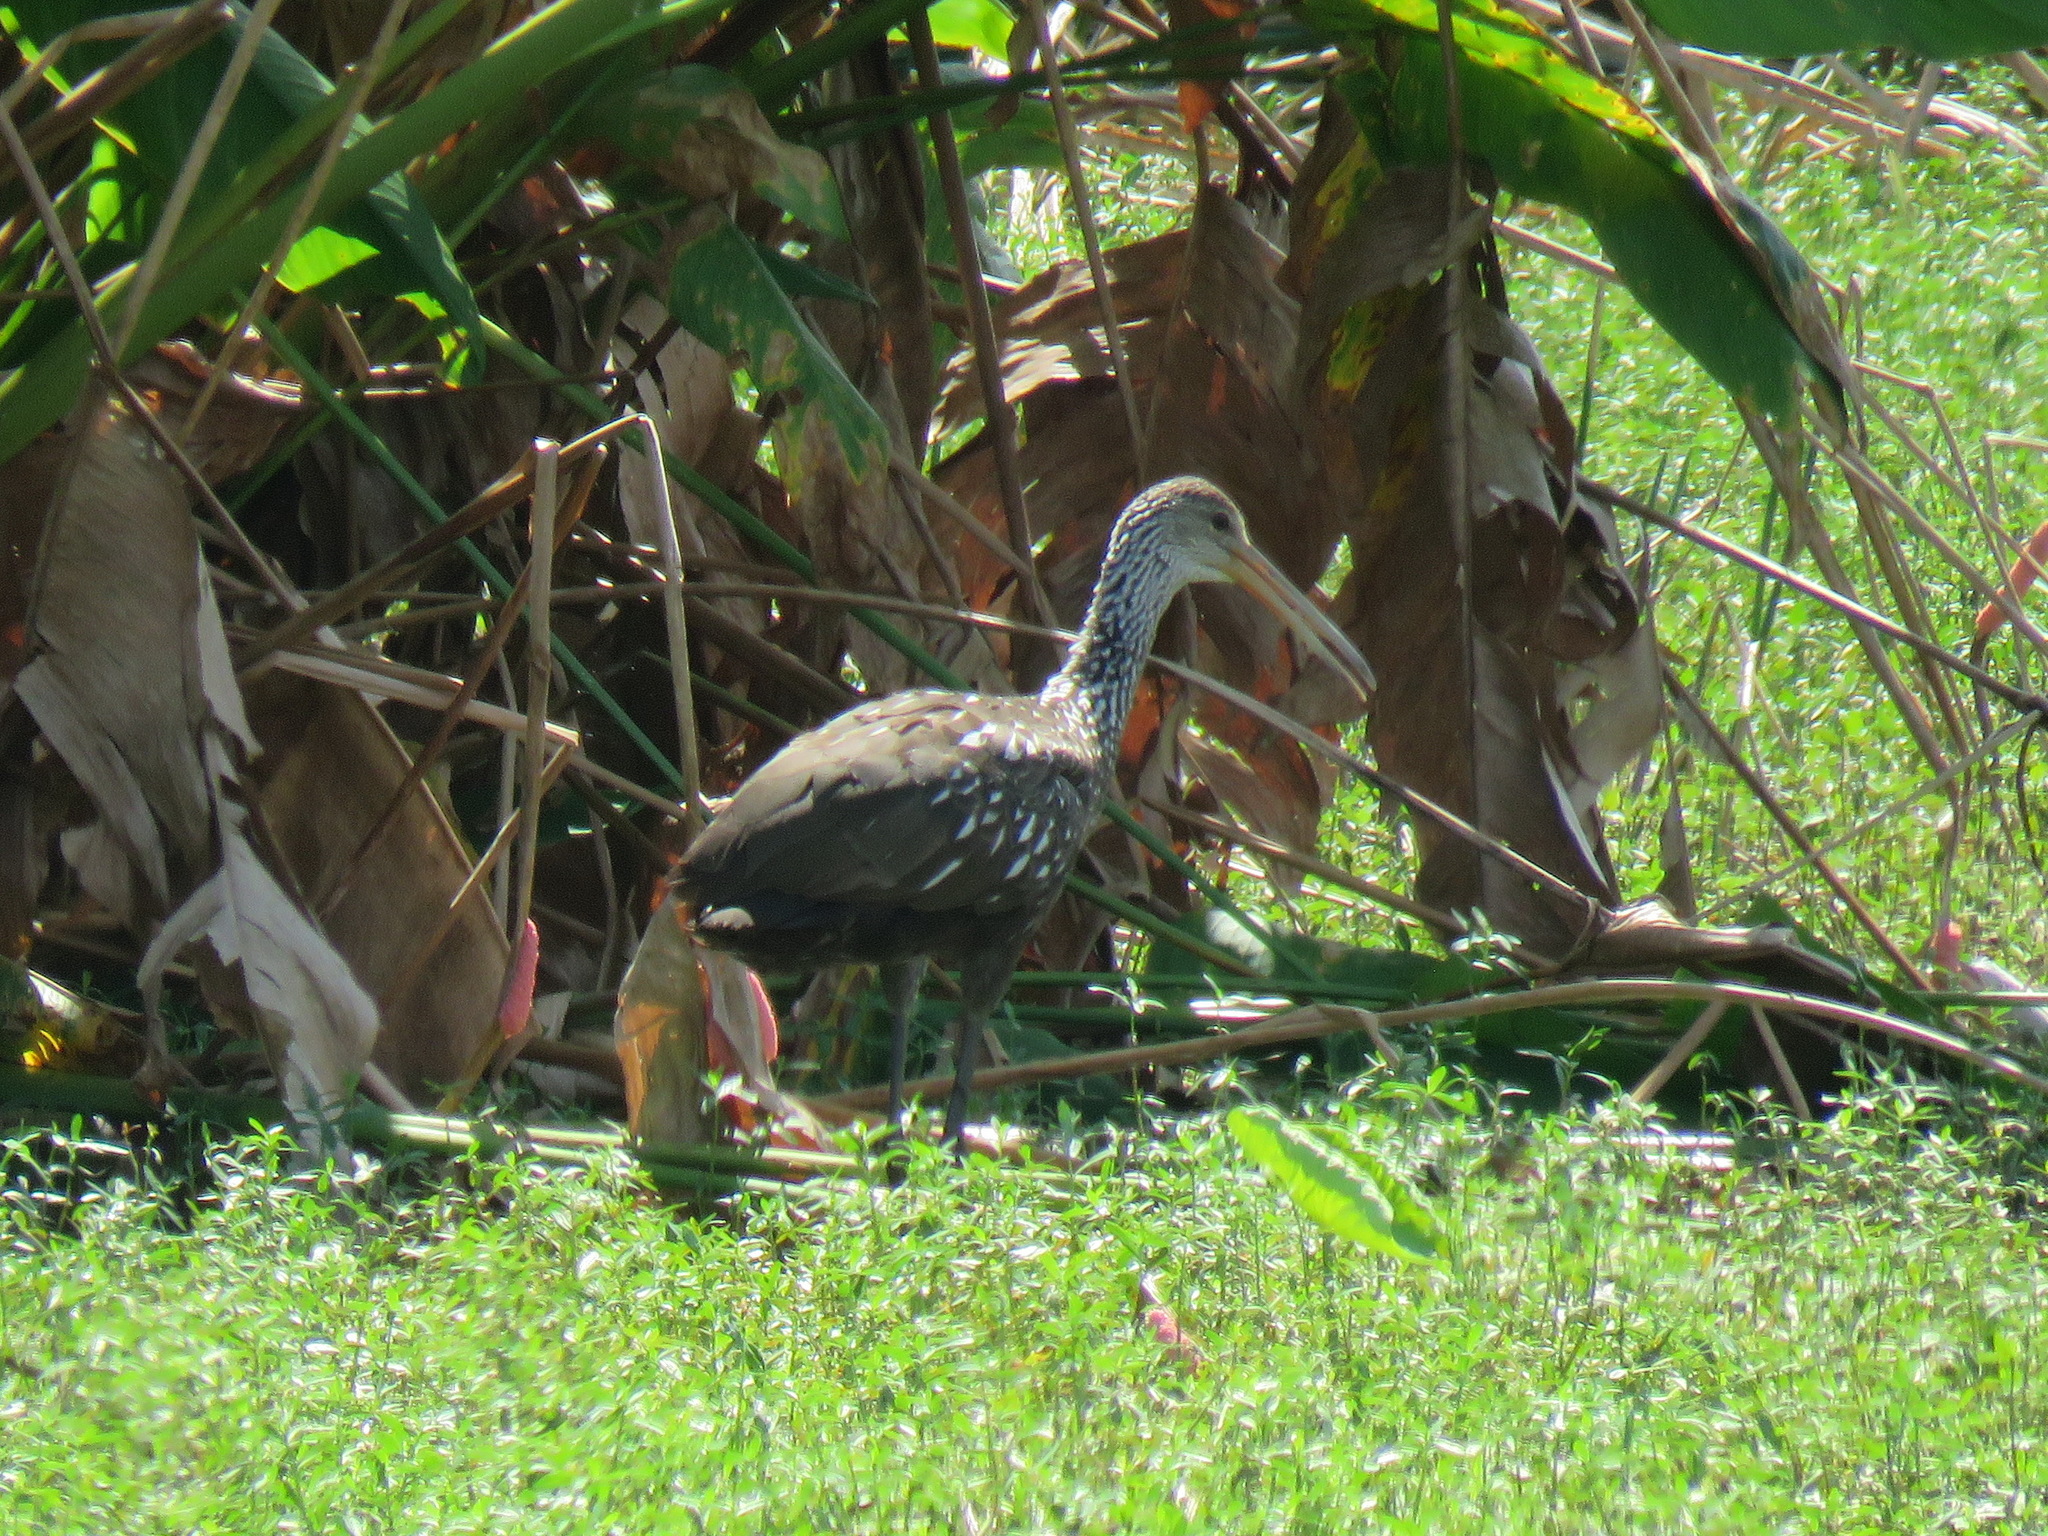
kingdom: Animalia
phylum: Chordata
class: Aves
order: Gruiformes
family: Aramidae
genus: Aramus
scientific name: Aramus guarauna
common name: Limpkin
